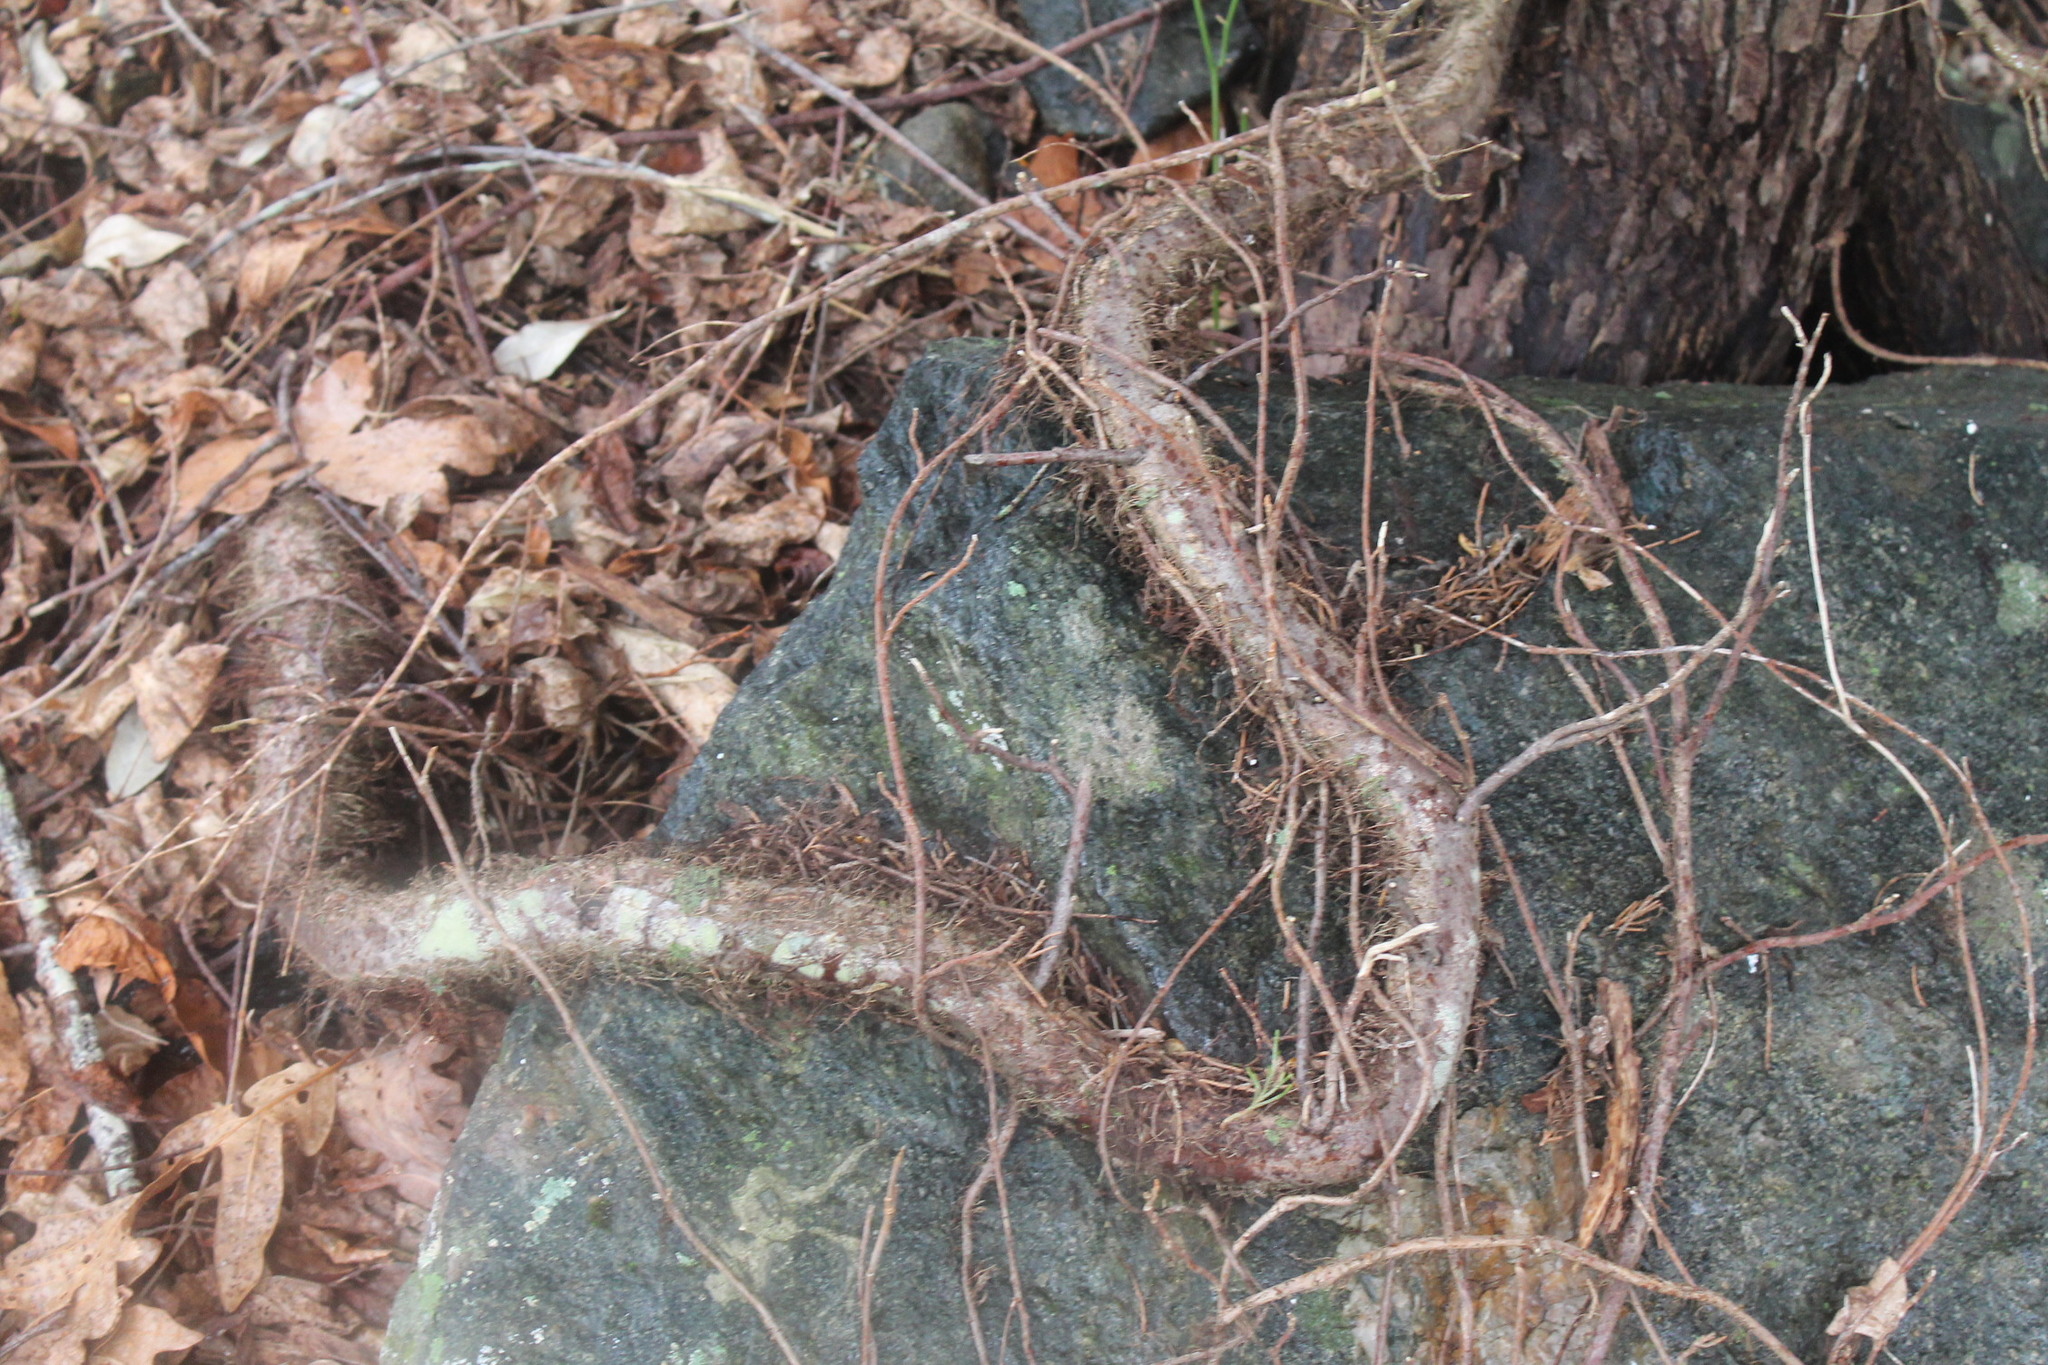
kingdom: Plantae
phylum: Tracheophyta
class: Magnoliopsida
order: Sapindales
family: Anacardiaceae
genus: Toxicodendron
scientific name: Toxicodendron radicans
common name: Poison ivy
